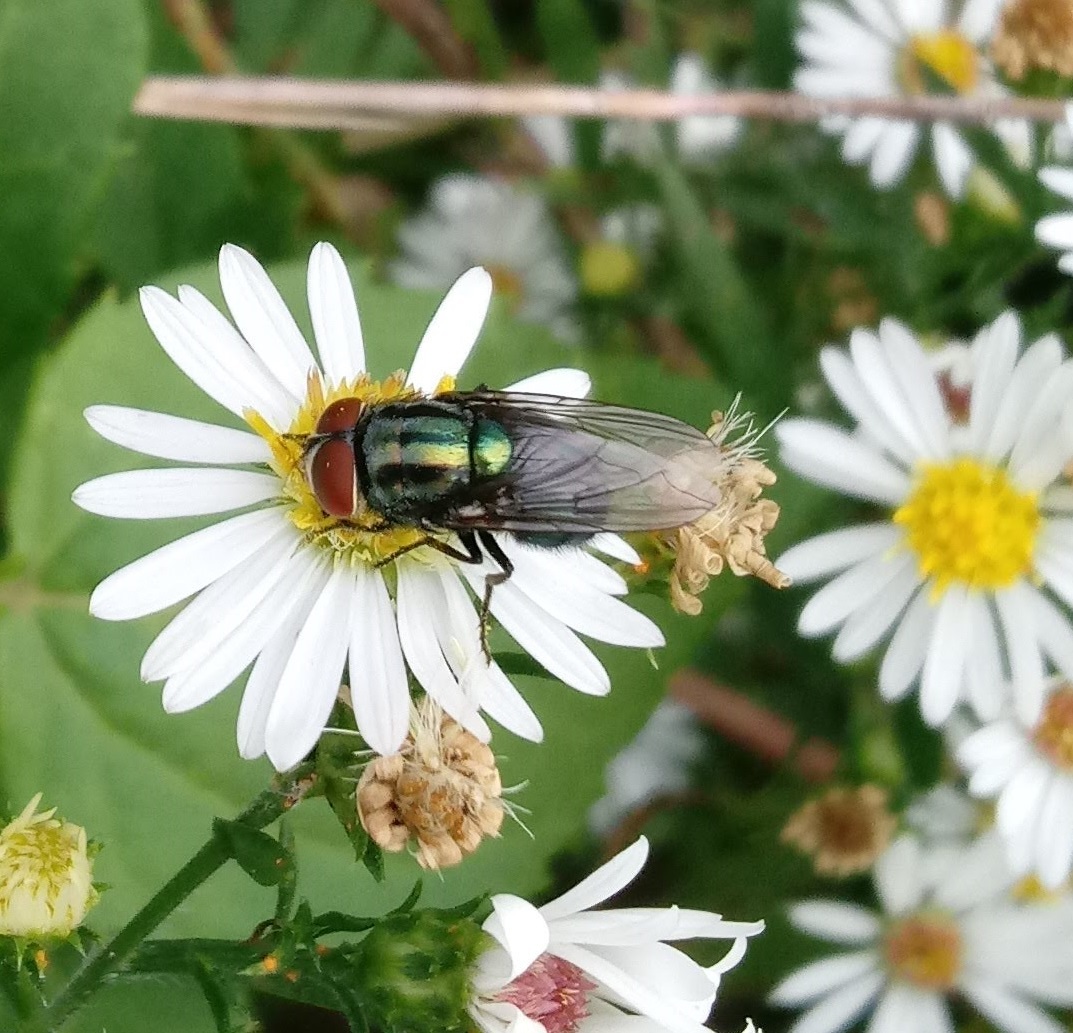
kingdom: Animalia
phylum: Arthropoda
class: Insecta
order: Diptera
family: Calliphoridae
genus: Cochliomyia
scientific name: Cochliomyia macellaria
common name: Secondary screwworm
